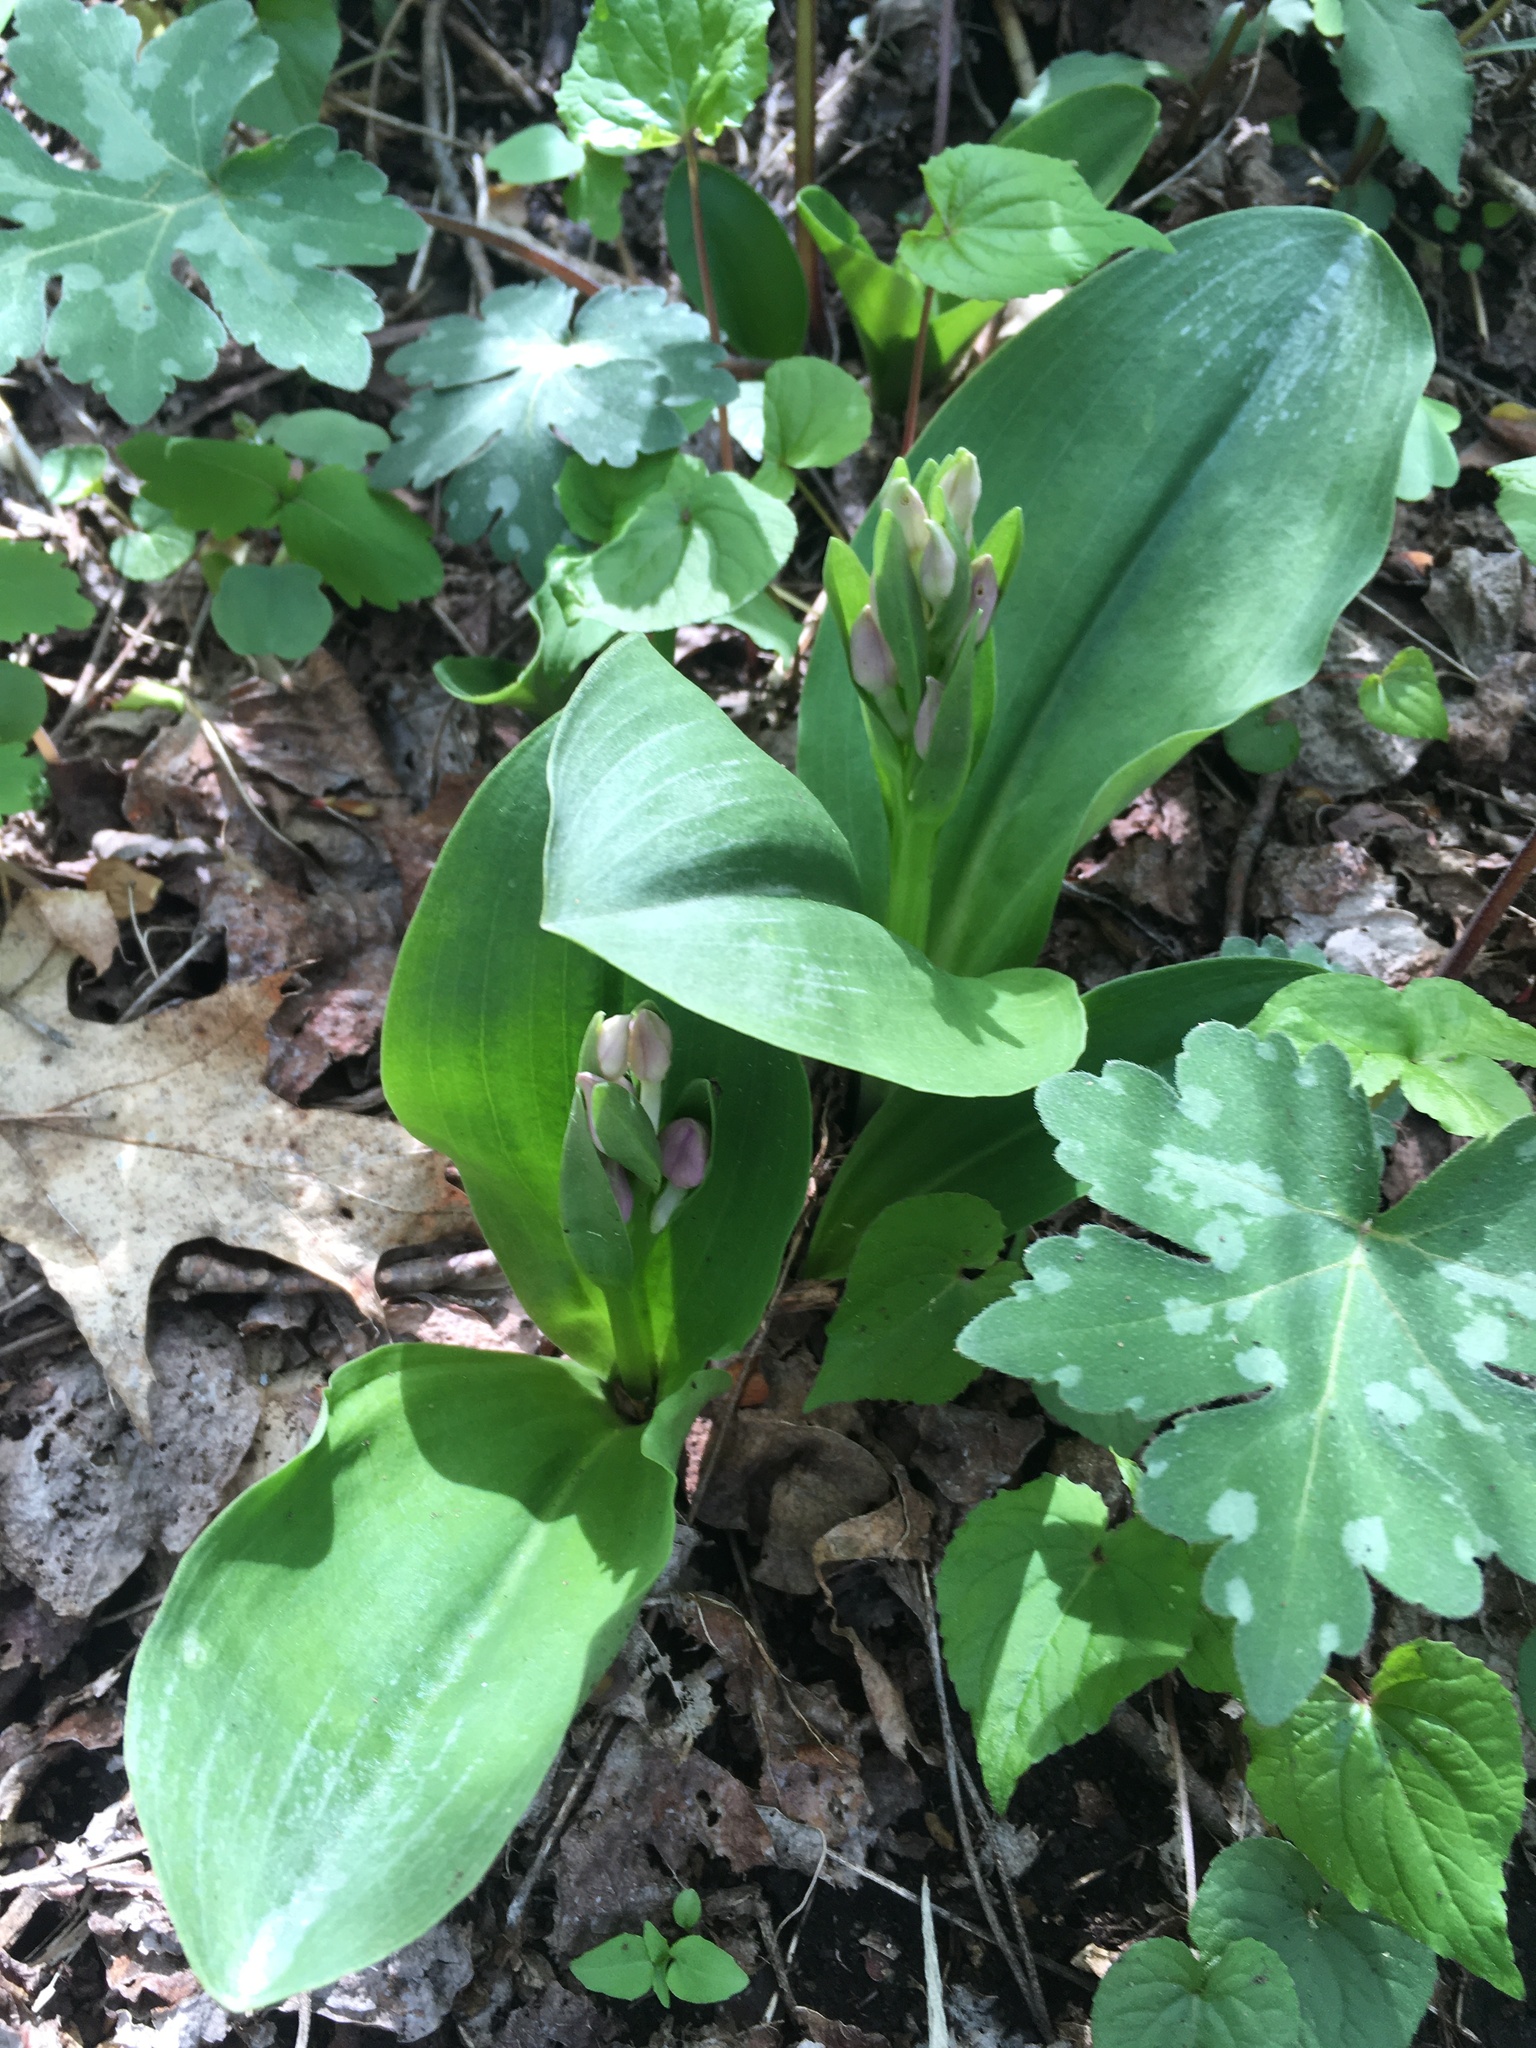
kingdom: Plantae
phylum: Tracheophyta
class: Liliopsida
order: Asparagales
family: Orchidaceae
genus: Galearis
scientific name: Galearis spectabilis
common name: Purple-hooded orchis
